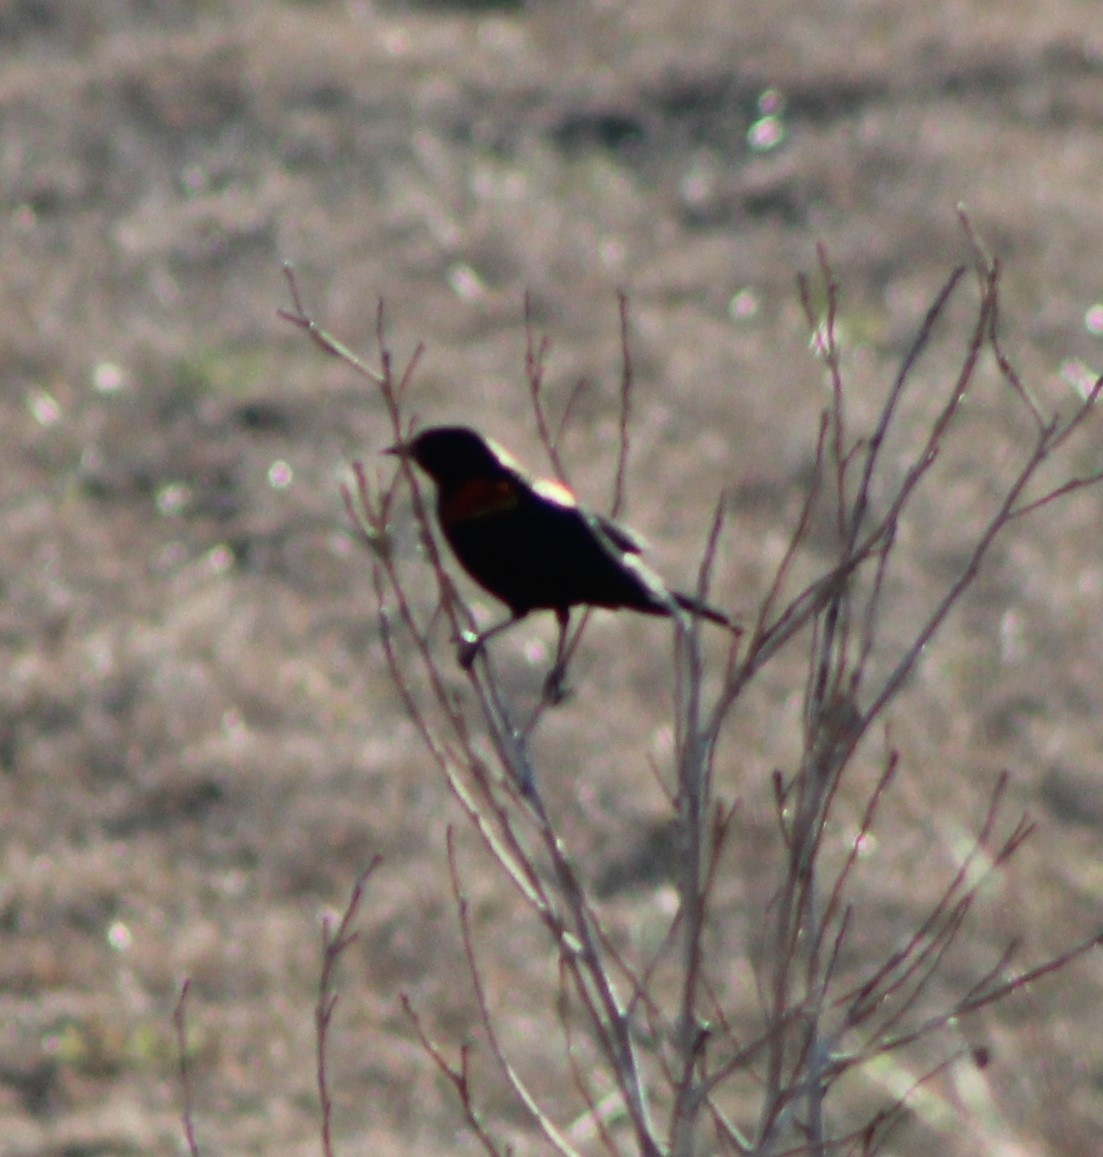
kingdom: Animalia
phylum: Chordata
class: Aves
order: Passeriformes
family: Icteridae
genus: Agelaius
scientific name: Agelaius phoeniceus
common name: Red-winged blackbird
